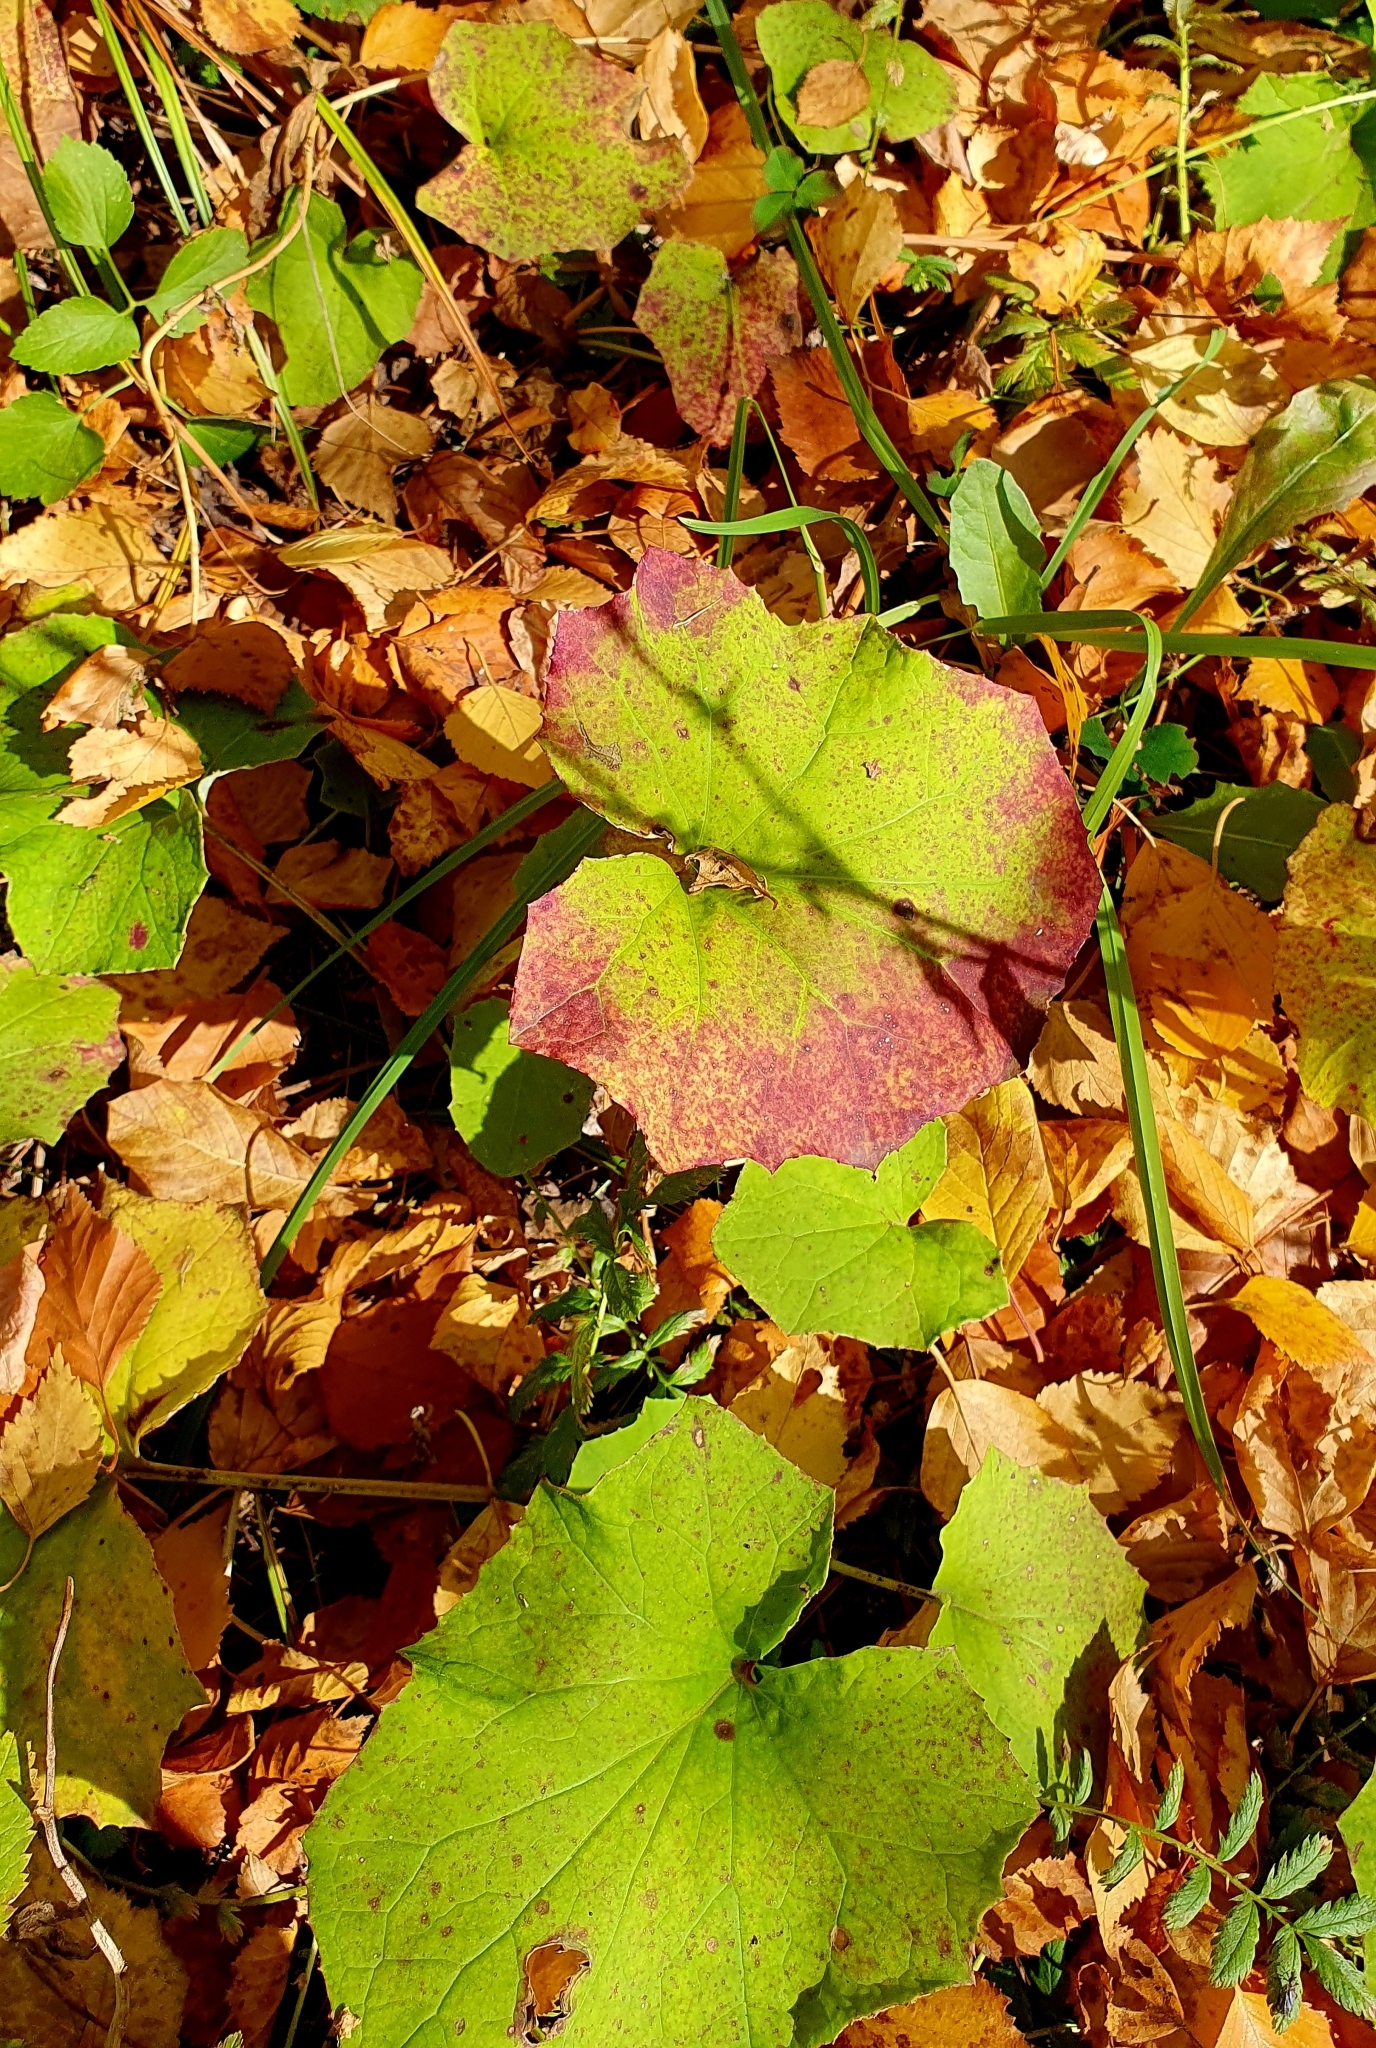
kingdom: Plantae
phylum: Tracheophyta
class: Magnoliopsida
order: Asterales
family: Asteraceae
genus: Tussilago
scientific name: Tussilago farfara
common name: Coltsfoot
